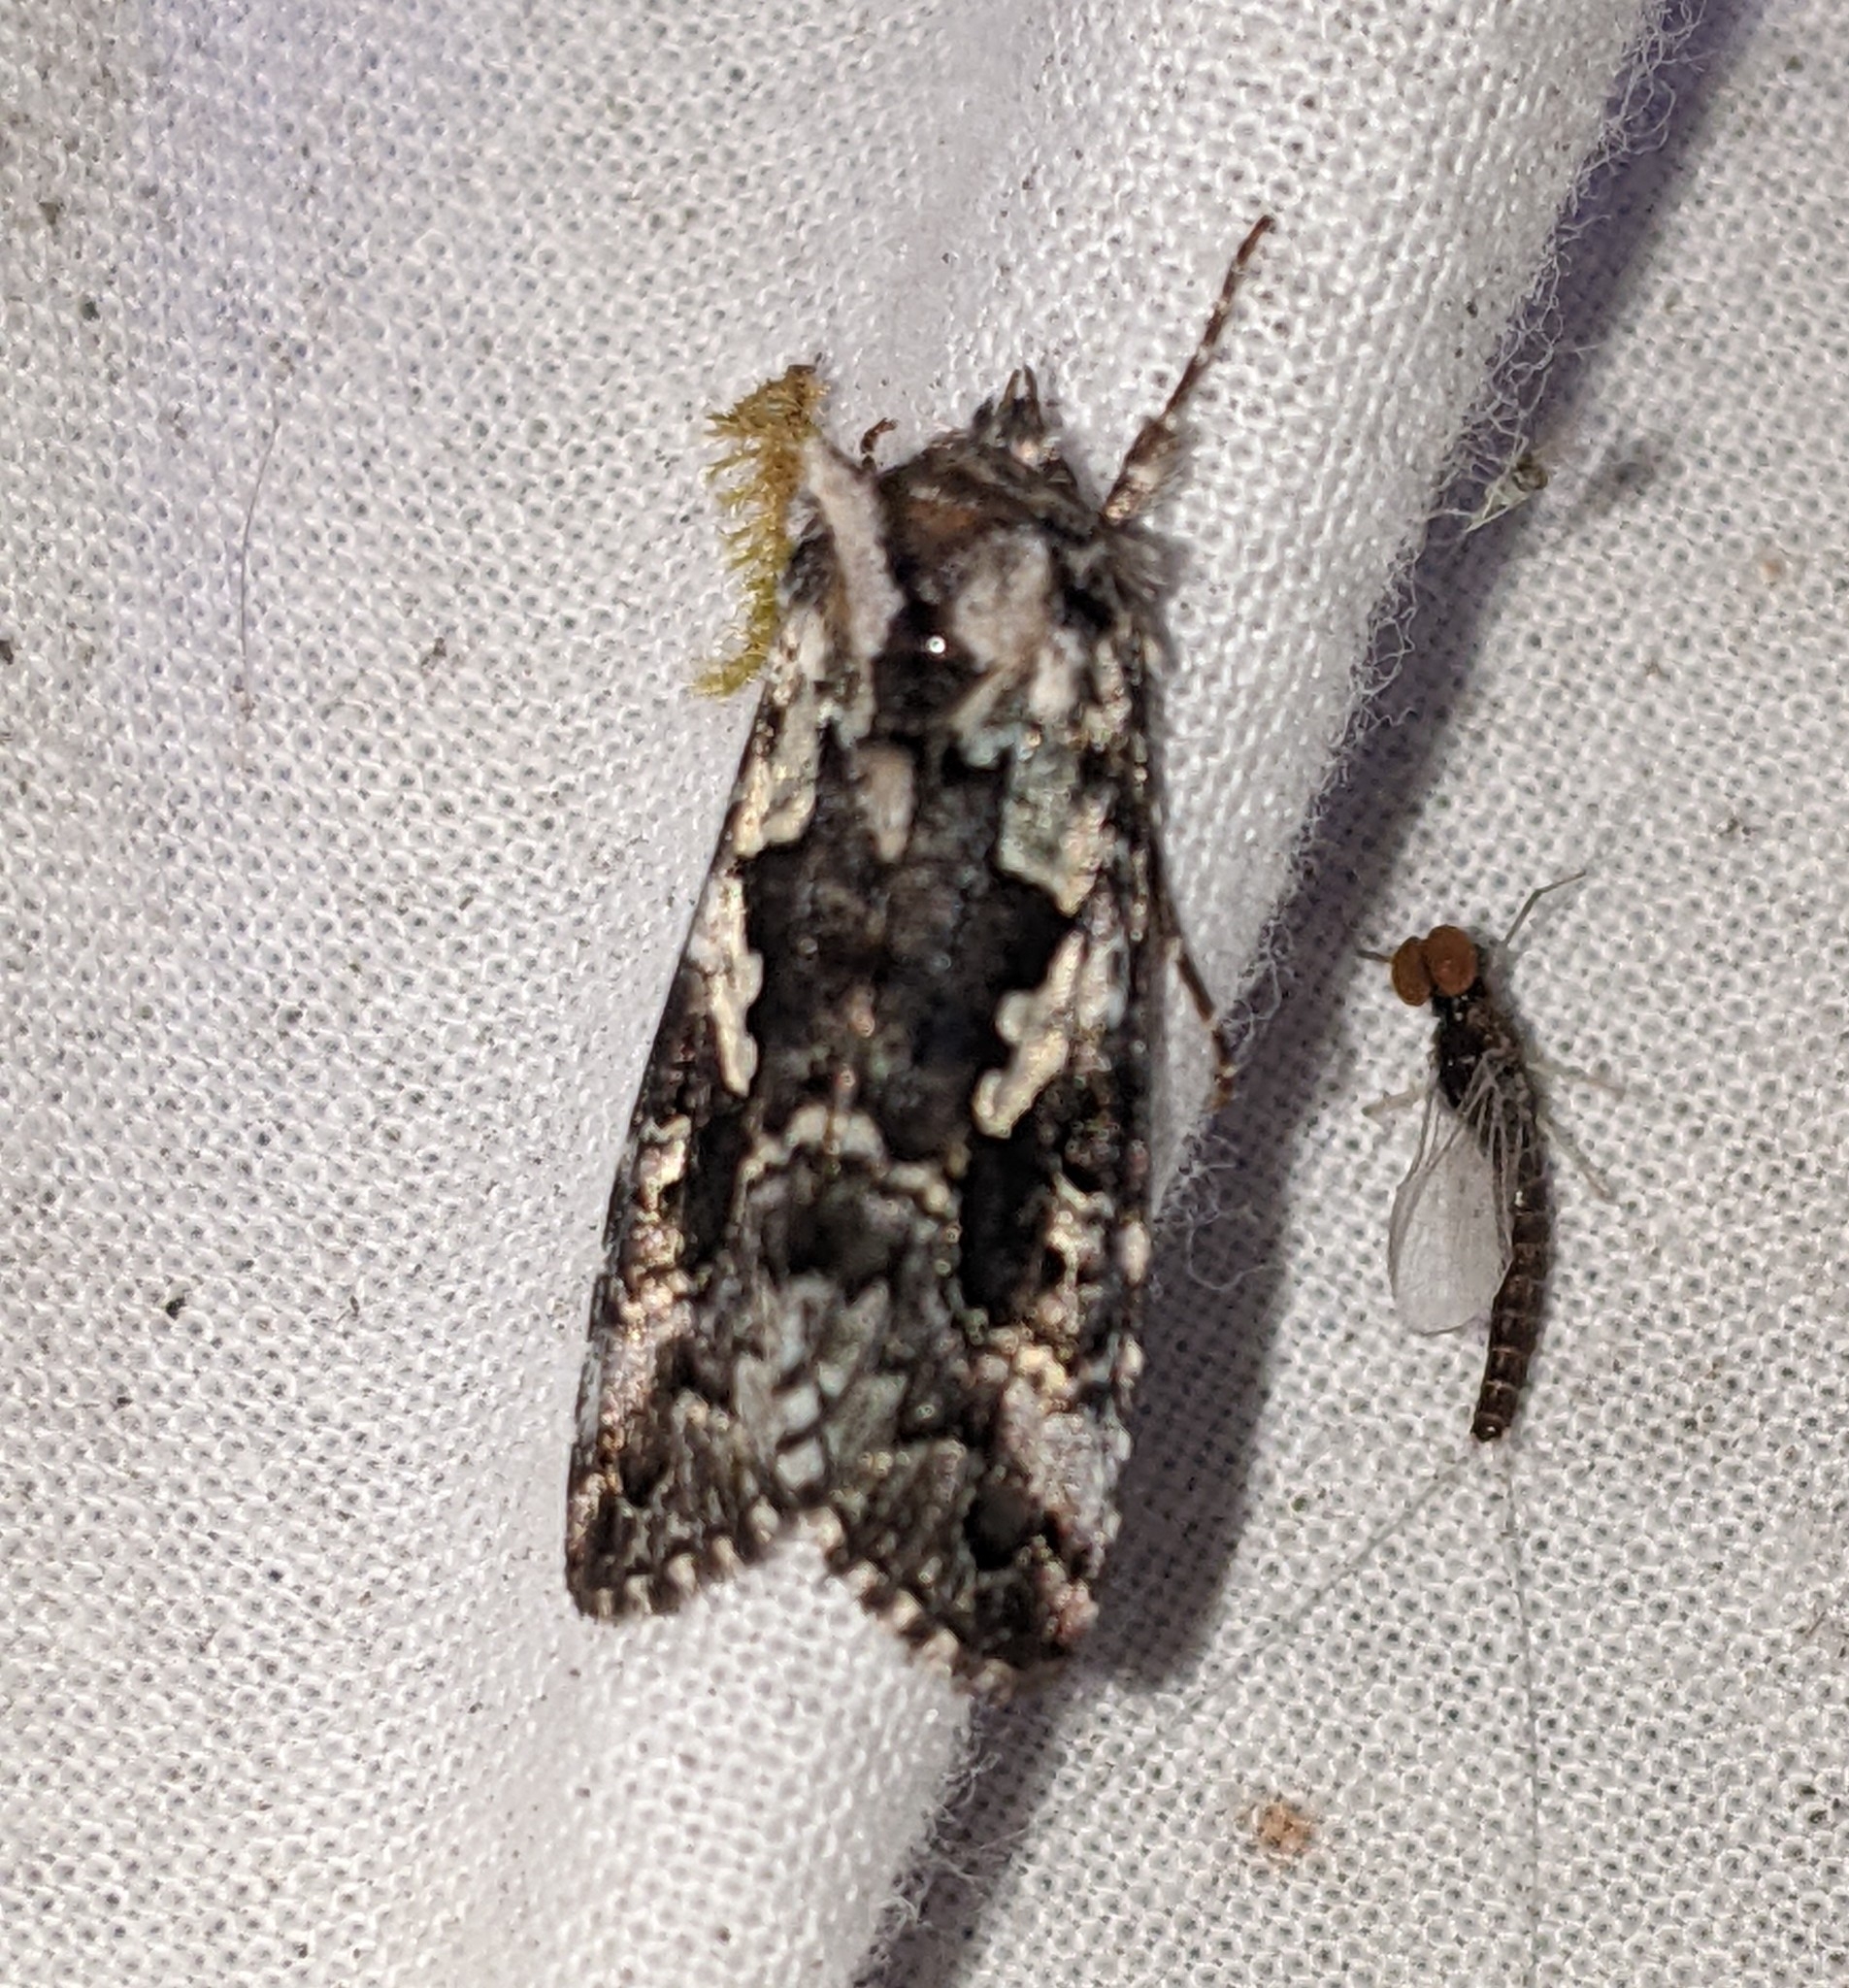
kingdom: Animalia
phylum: Arthropoda
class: Insecta
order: Lepidoptera
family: Noctuidae
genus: Syngrapha
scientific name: Syngrapha rectangula
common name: Angulated cutworm
